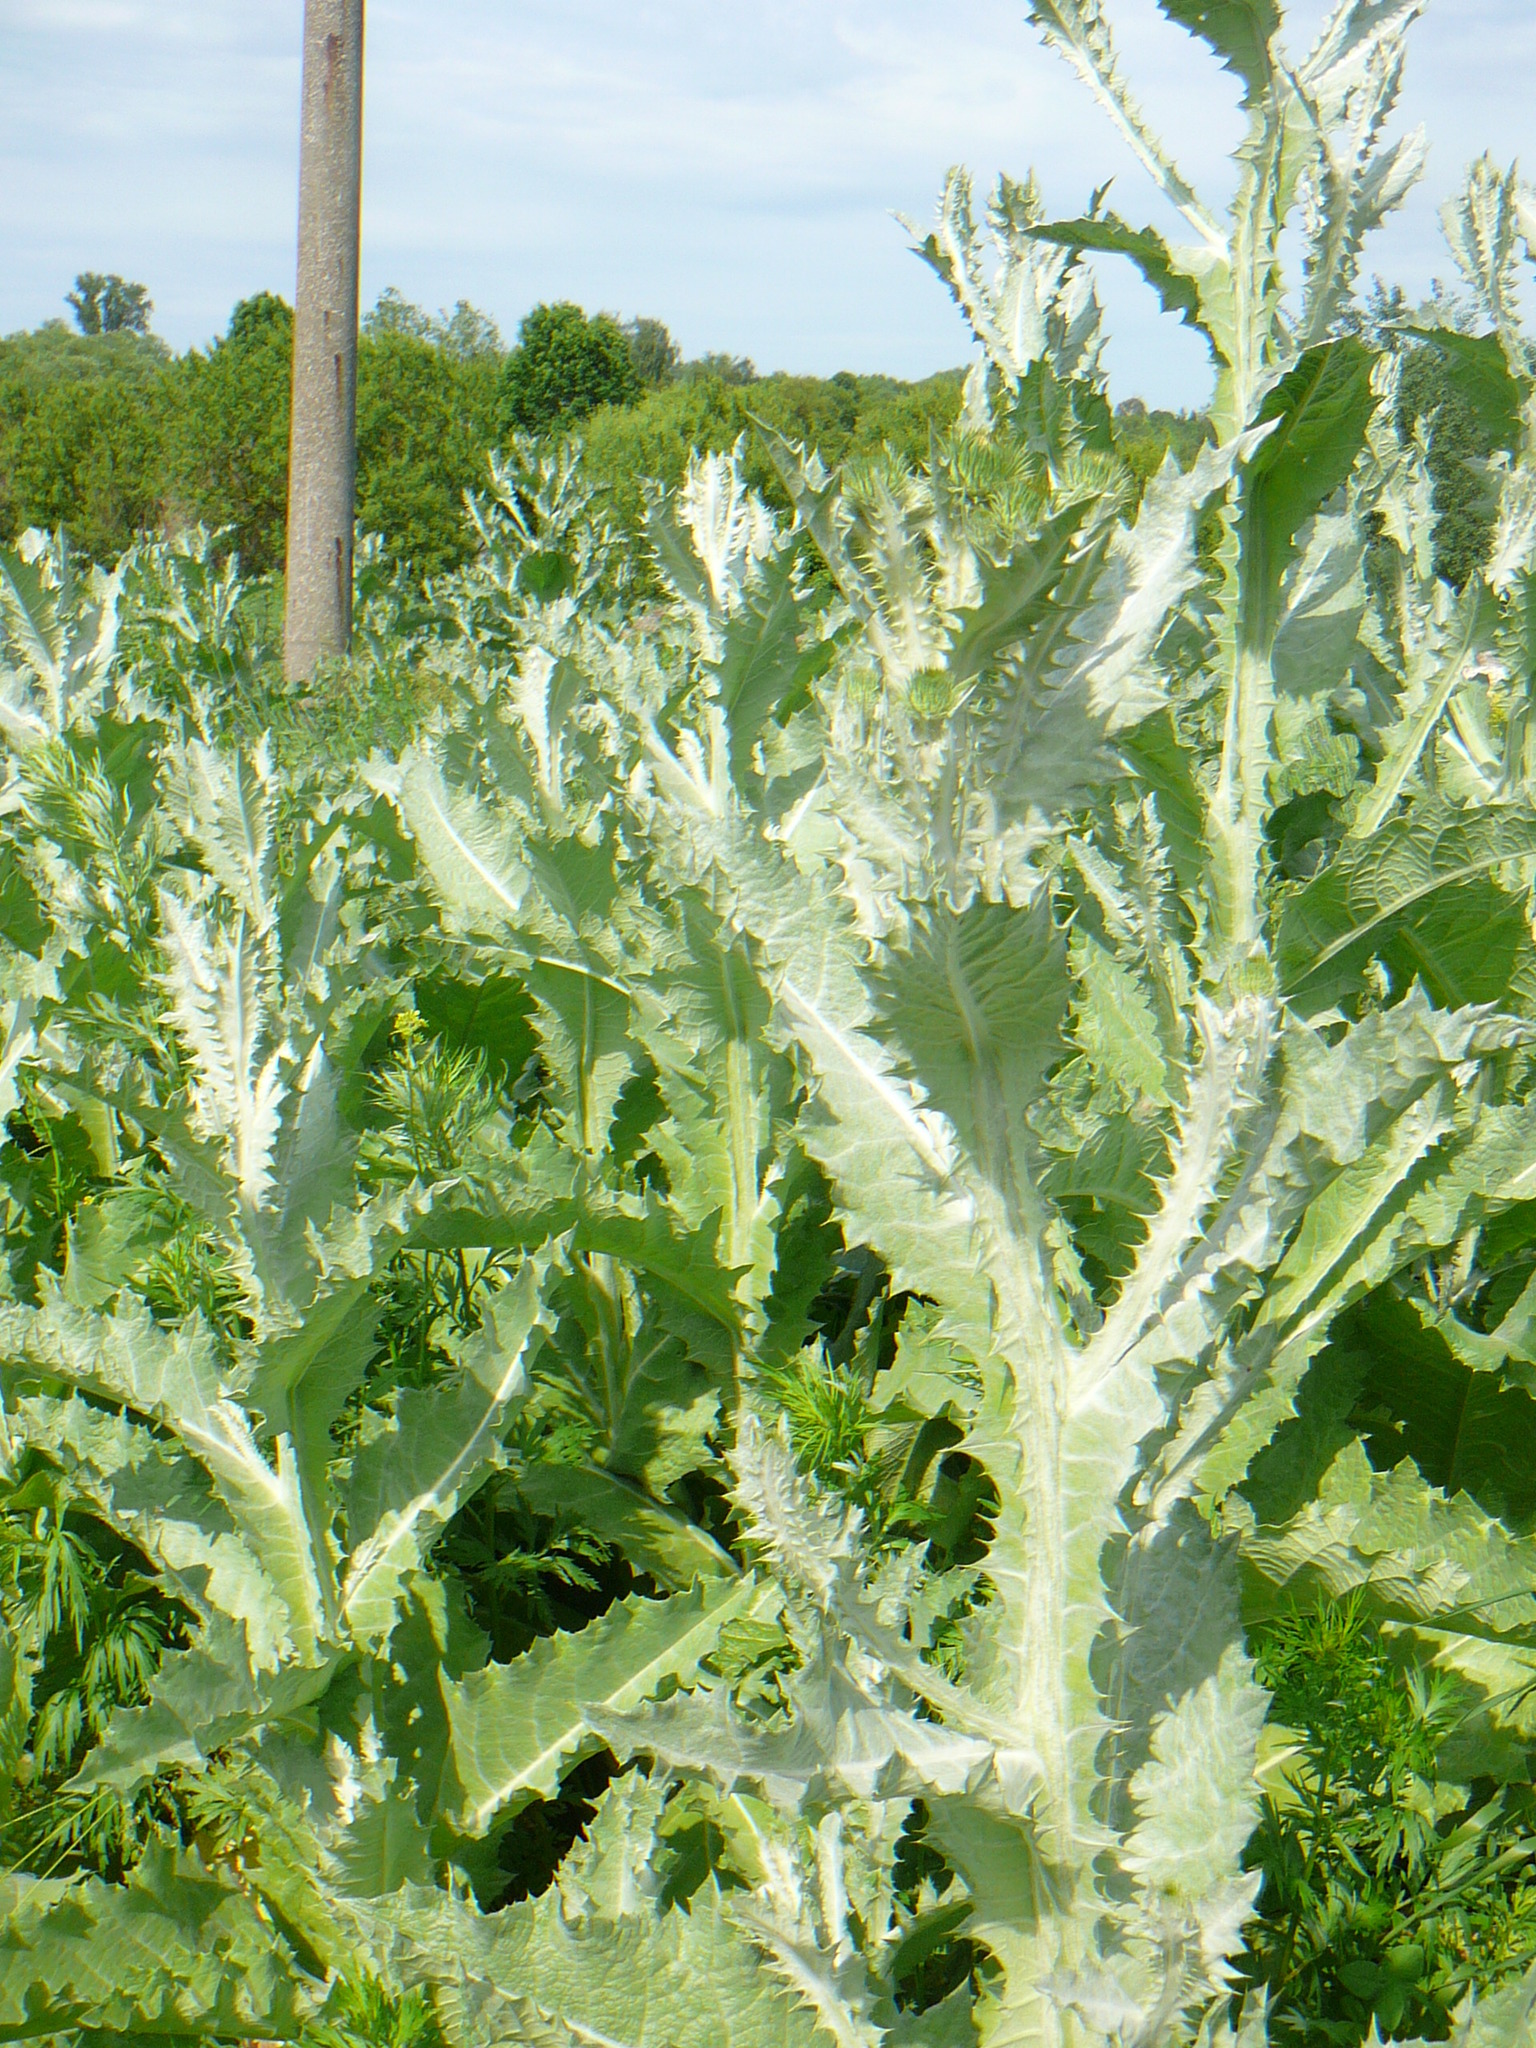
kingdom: Plantae
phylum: Tracheophyta
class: Magnoliopsida
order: Asterales
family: Asteraceae
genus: Onopordum
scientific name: Onopordum acanthium
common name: Scotch thistle
